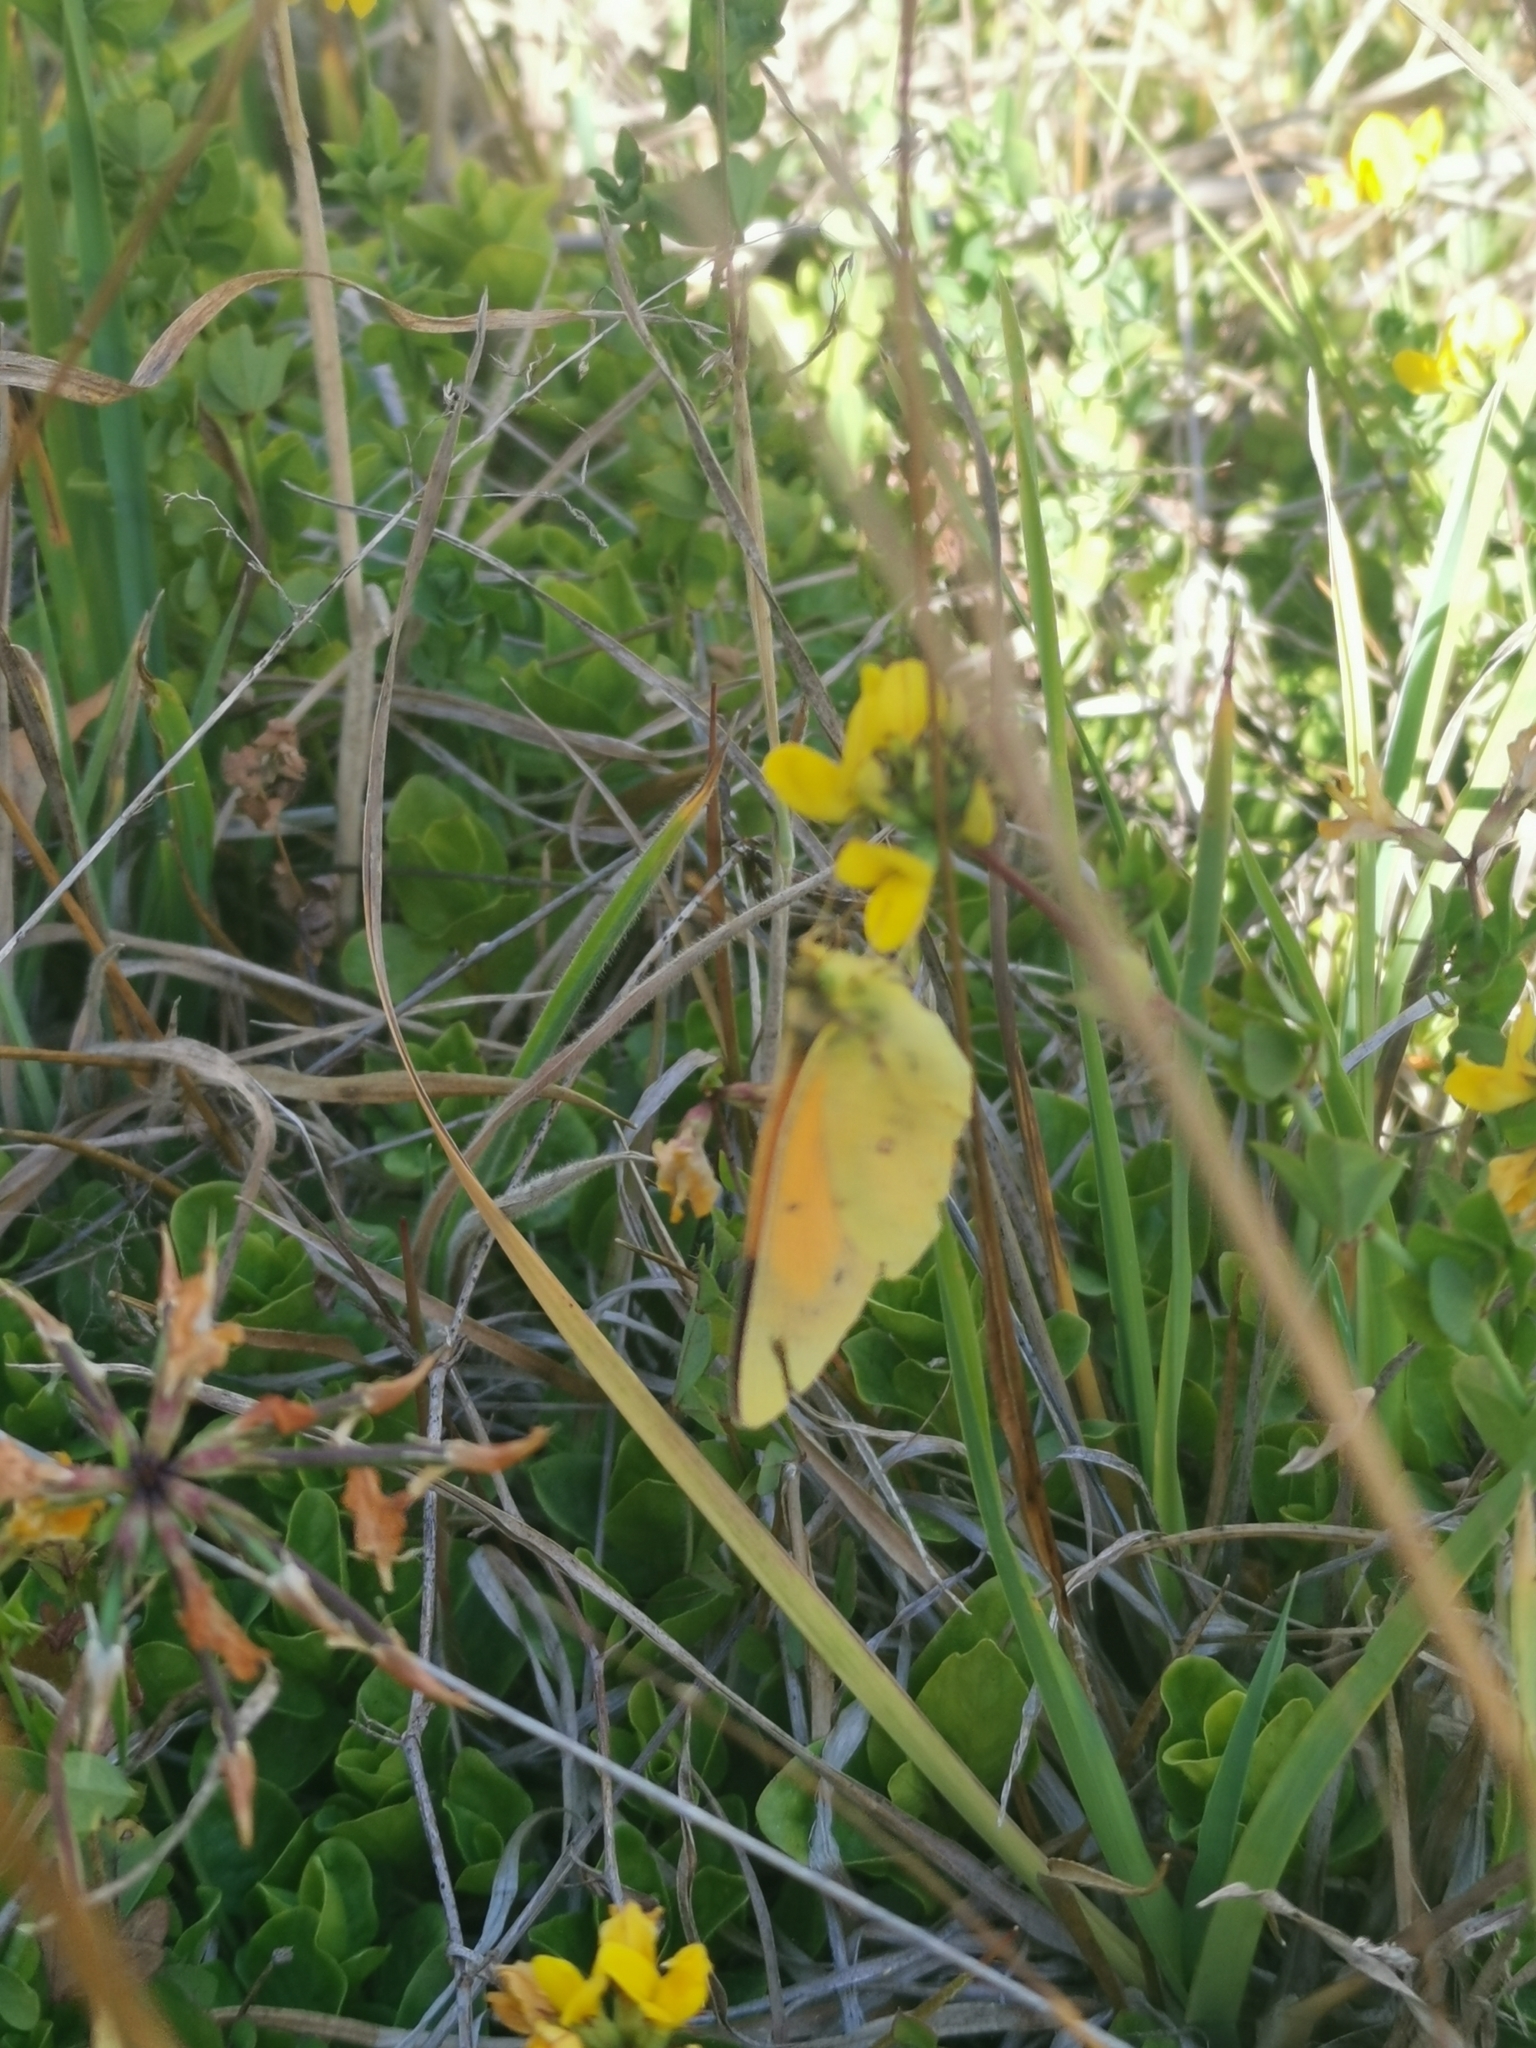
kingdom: Animalia
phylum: Arthropoda
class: Insecta
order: Lepidoptera
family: Pieridae
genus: Colias
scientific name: Colias vauthierii
